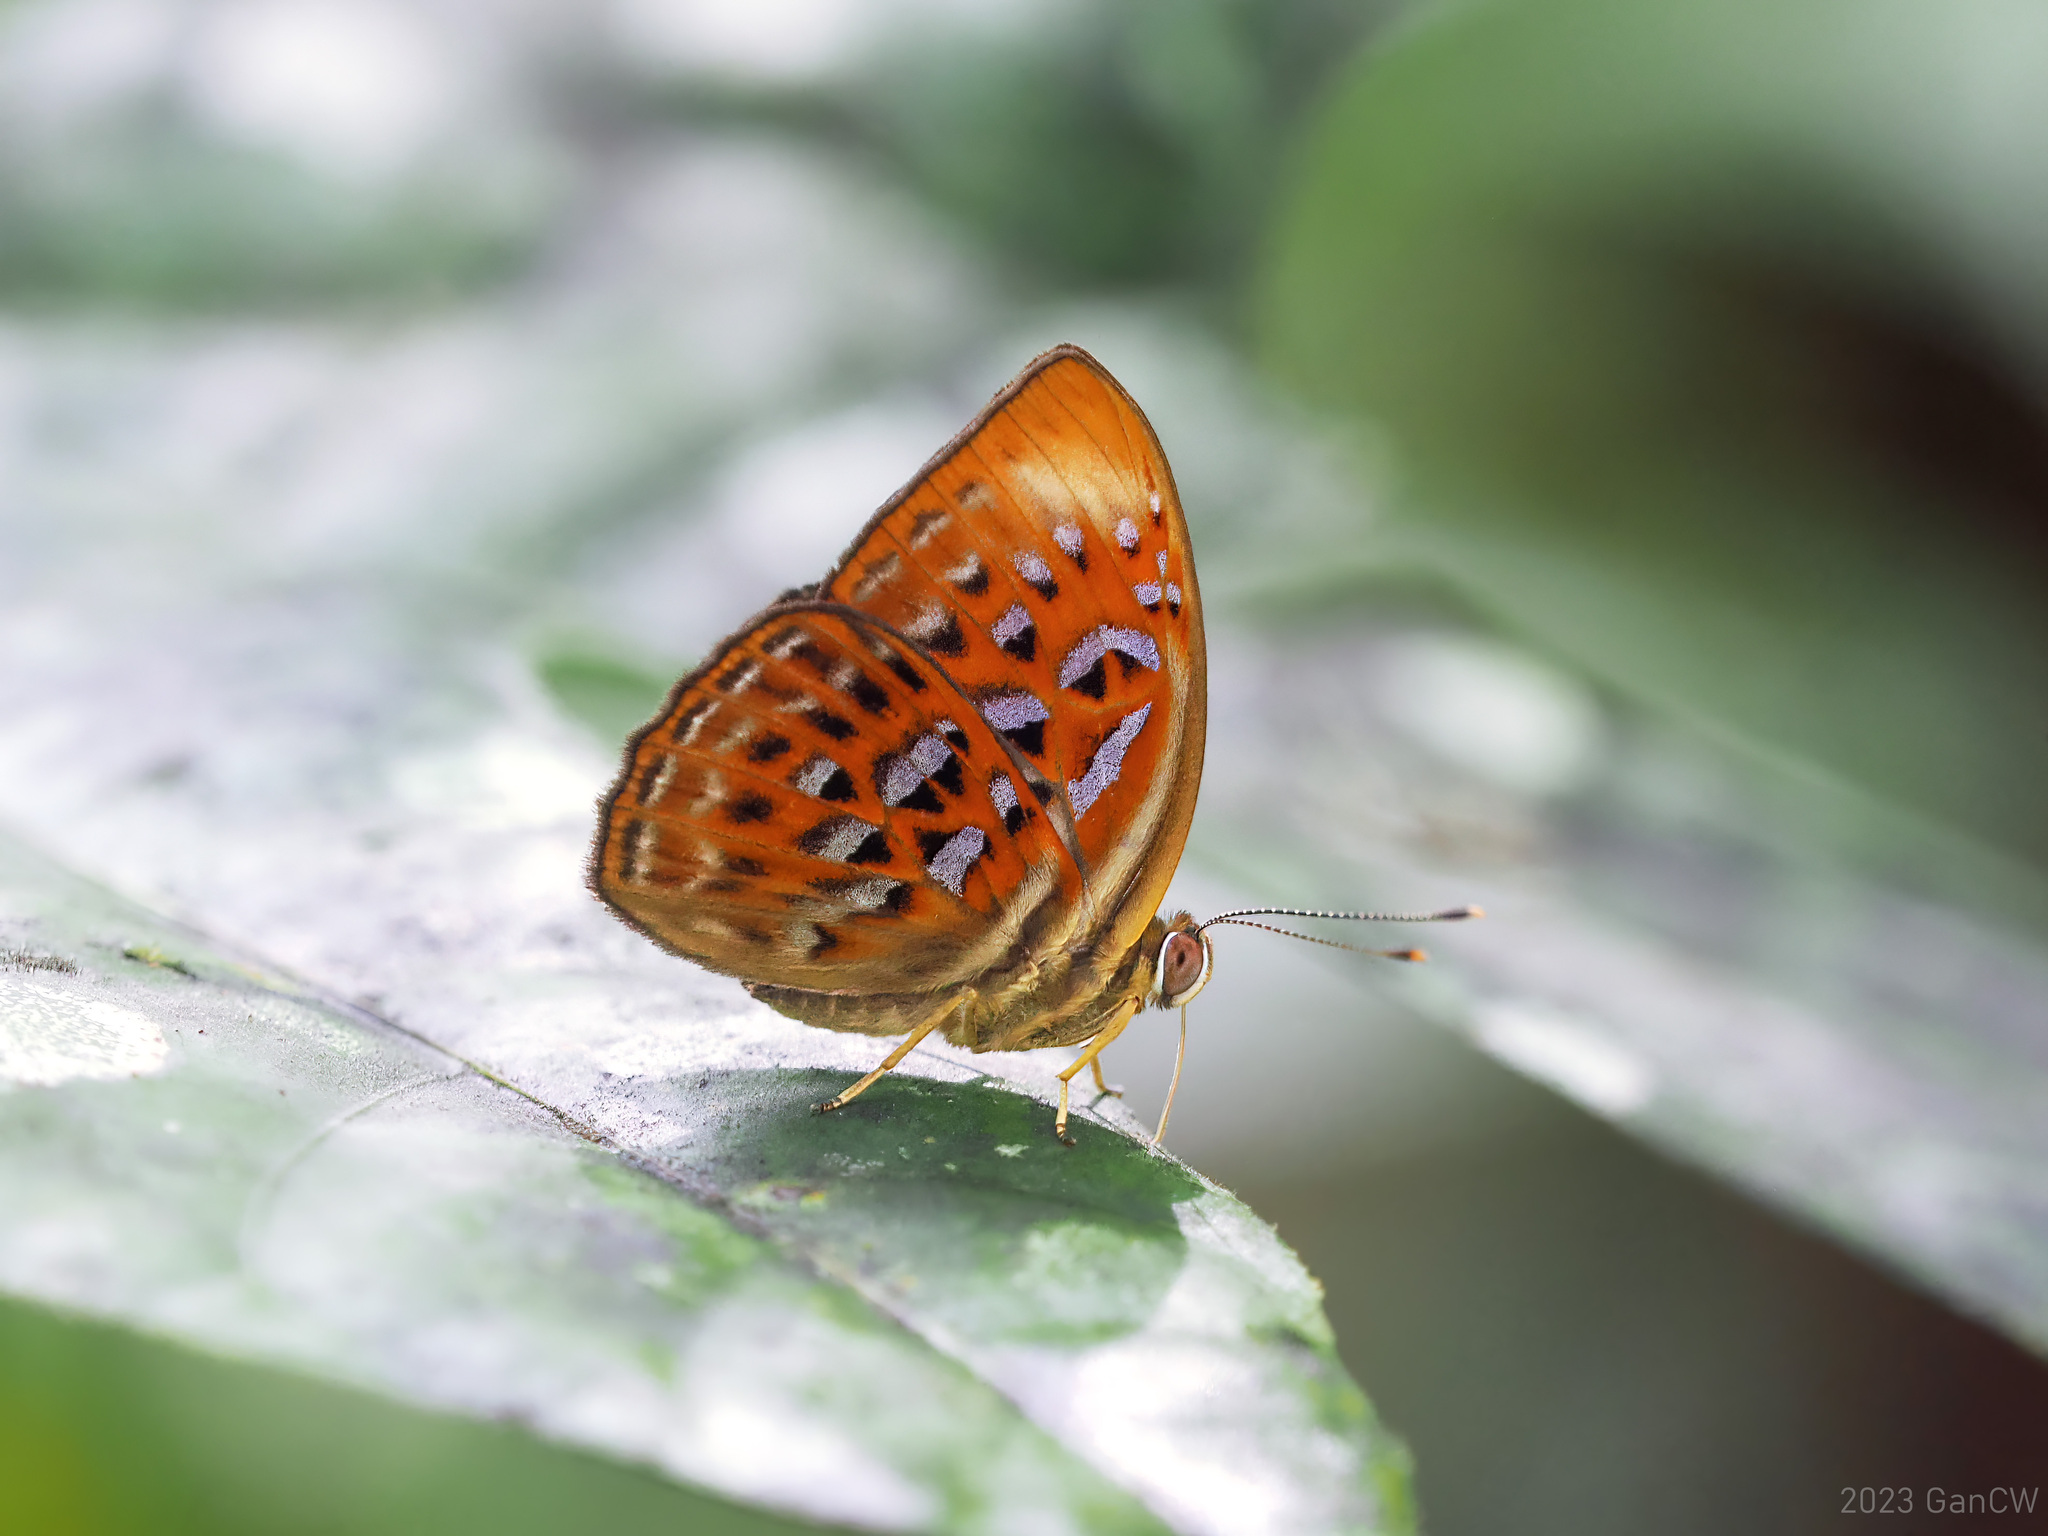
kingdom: Animalia
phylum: Arthropoda
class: Insecta
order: Lepidoptera
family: Erebidae
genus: Dysschema
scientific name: Dysschema
